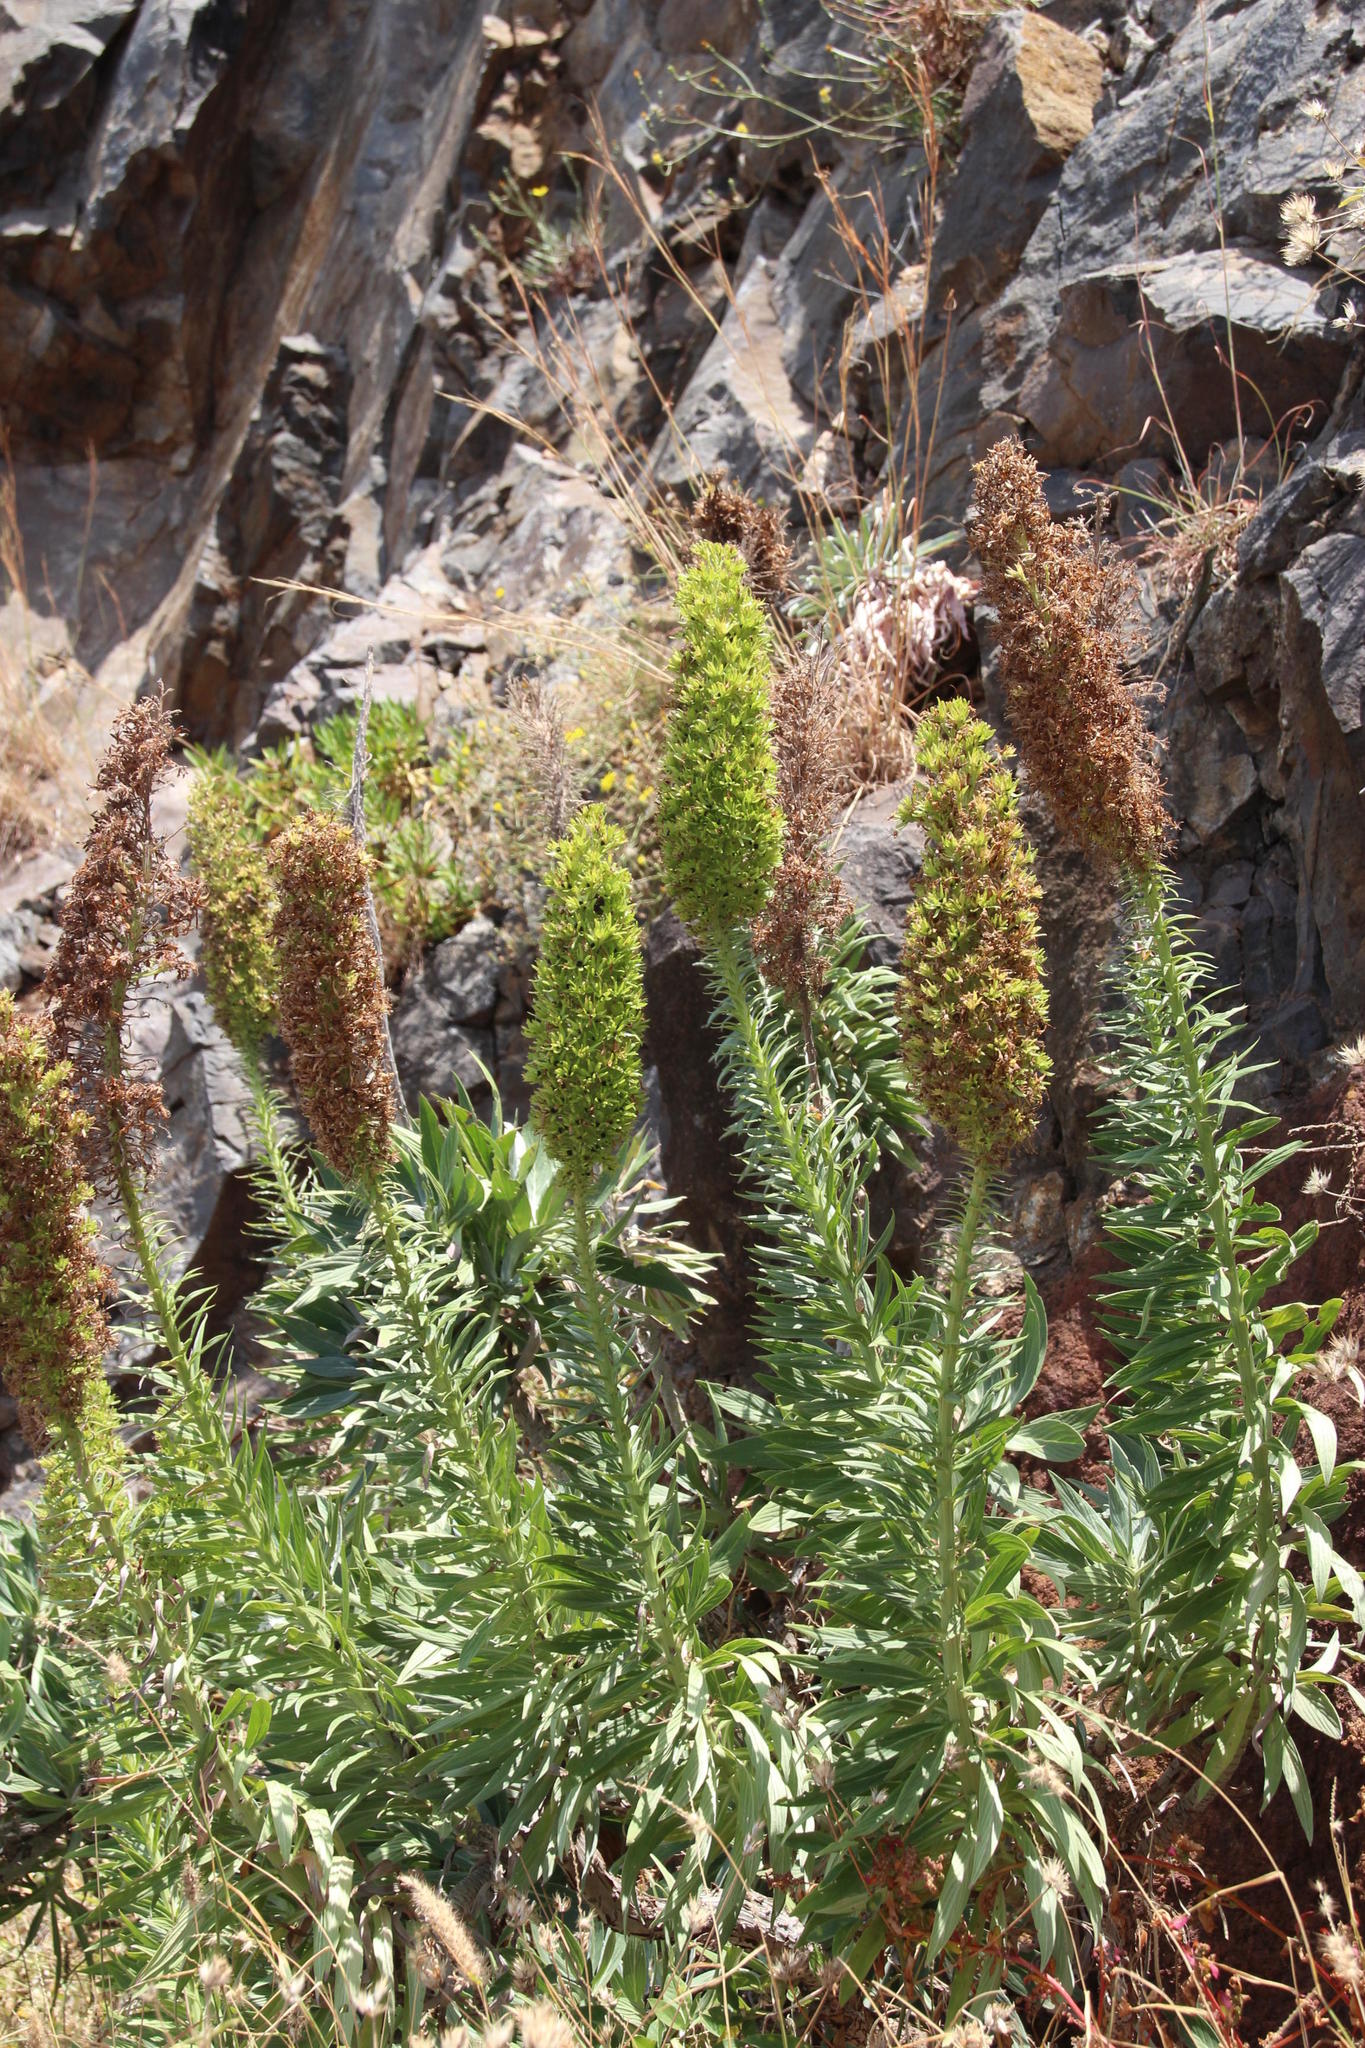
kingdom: Plantae
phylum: Tracheophyta
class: Magnoliopsida
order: Boraginales
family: Boraginaceae
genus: Echium
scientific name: Echium nervosum
